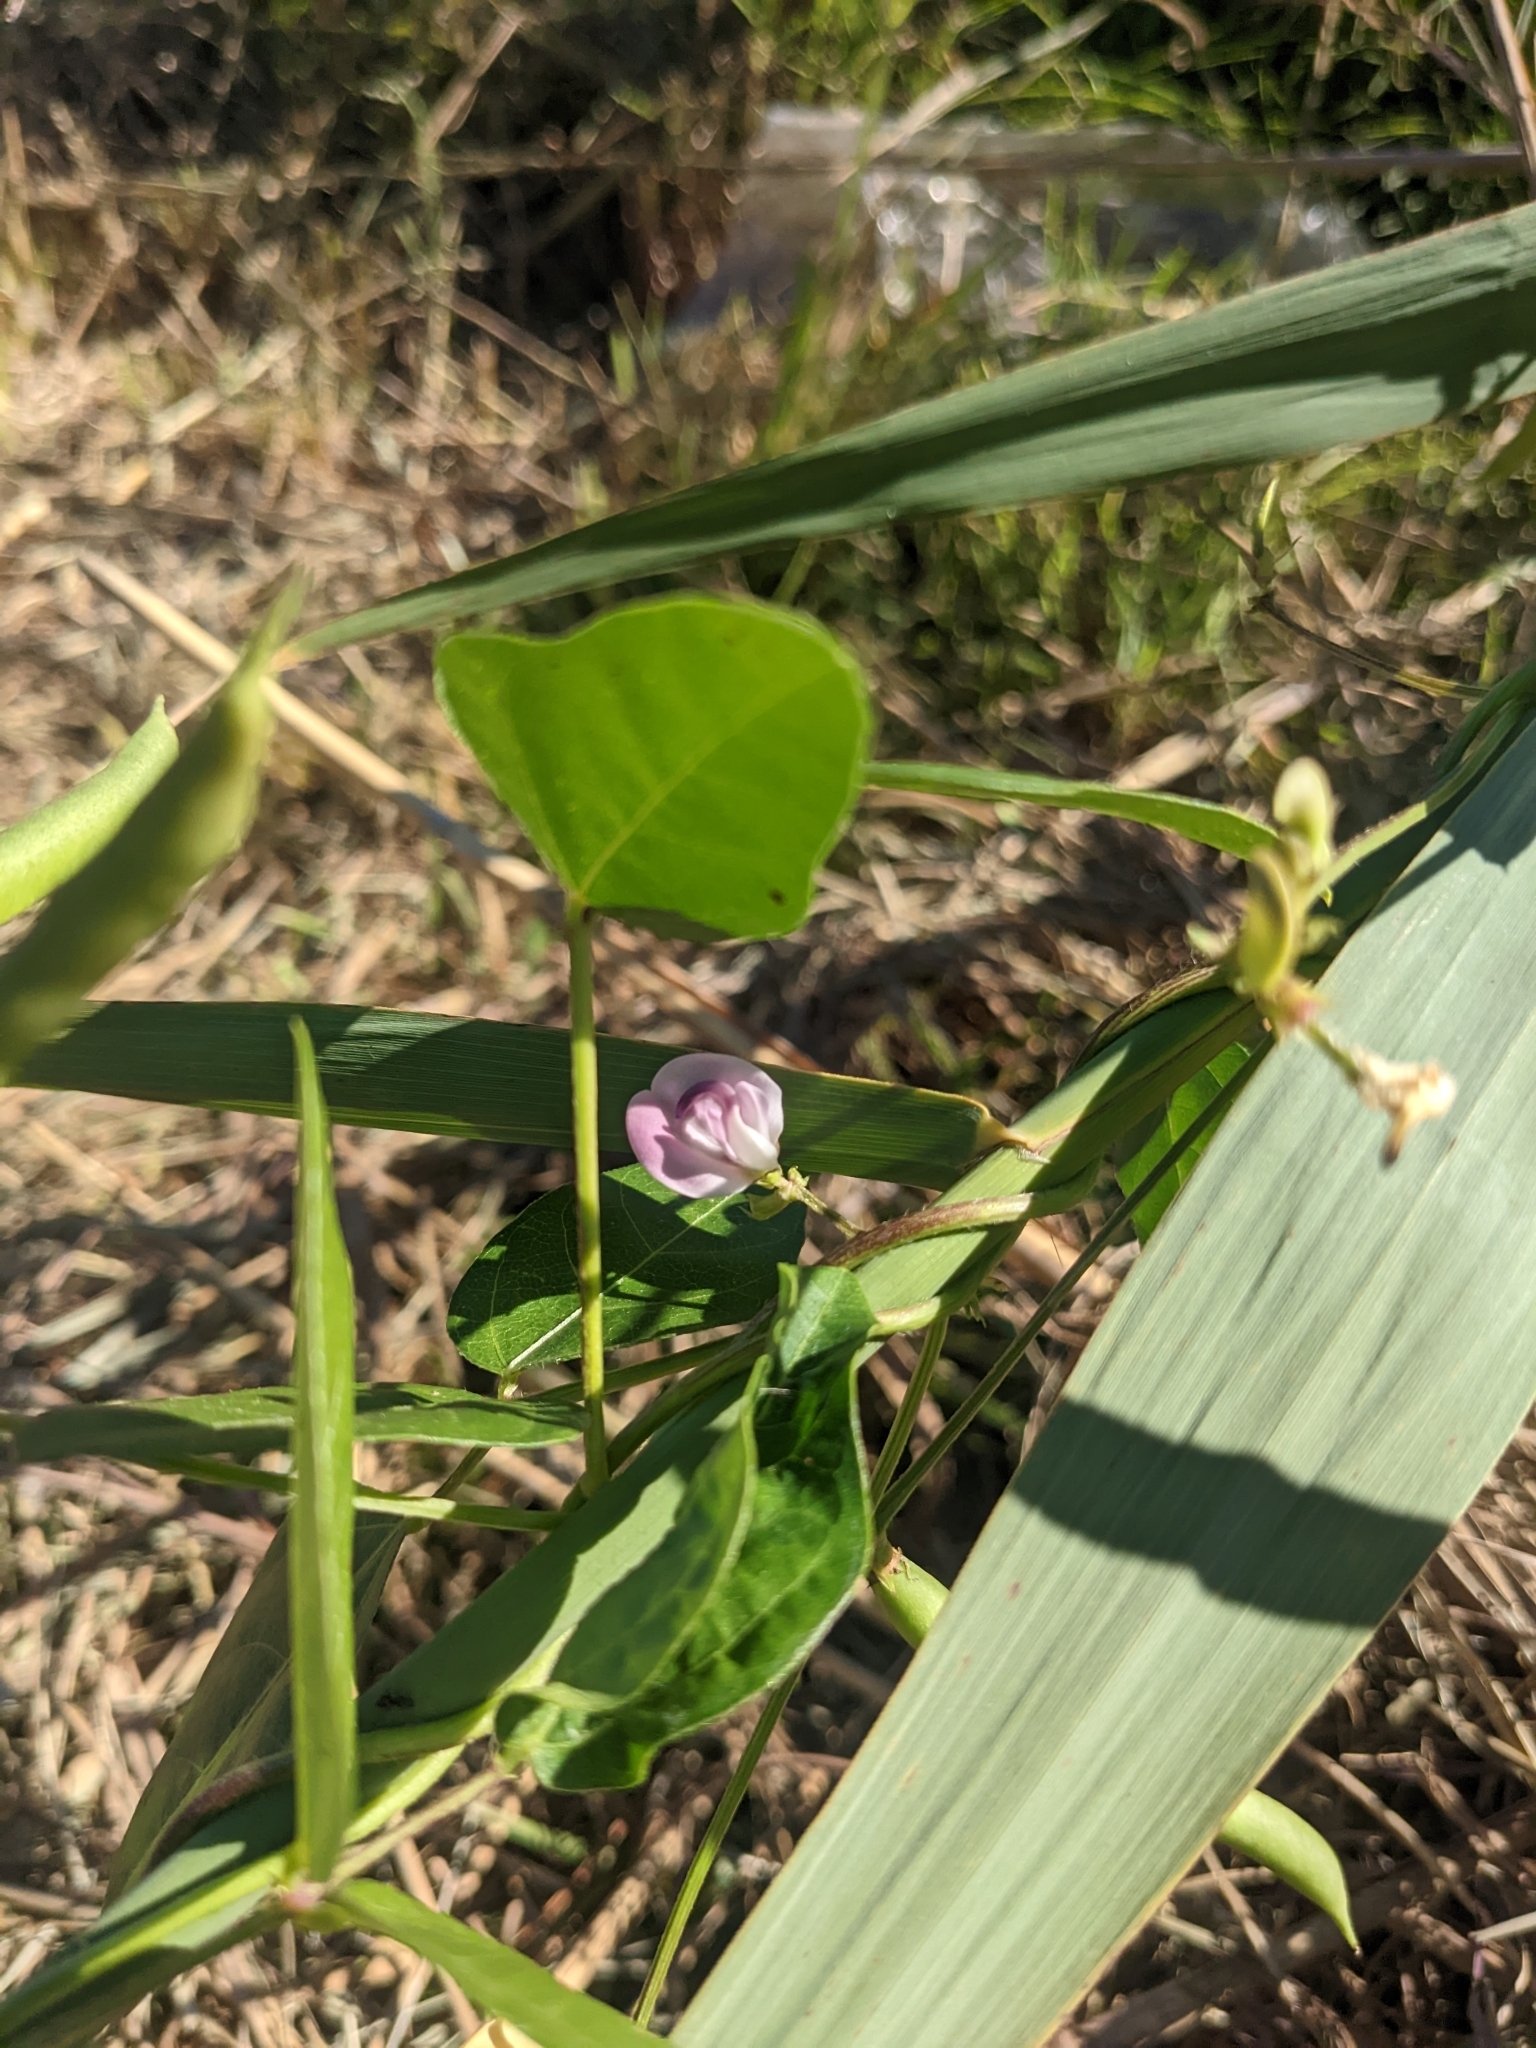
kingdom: Plantae
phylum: Tracheophyta
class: Magnoliopsida
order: Fabales
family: Fabaceae
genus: Strophostyles
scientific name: Strophostyles helvola
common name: Trailing wild bean
